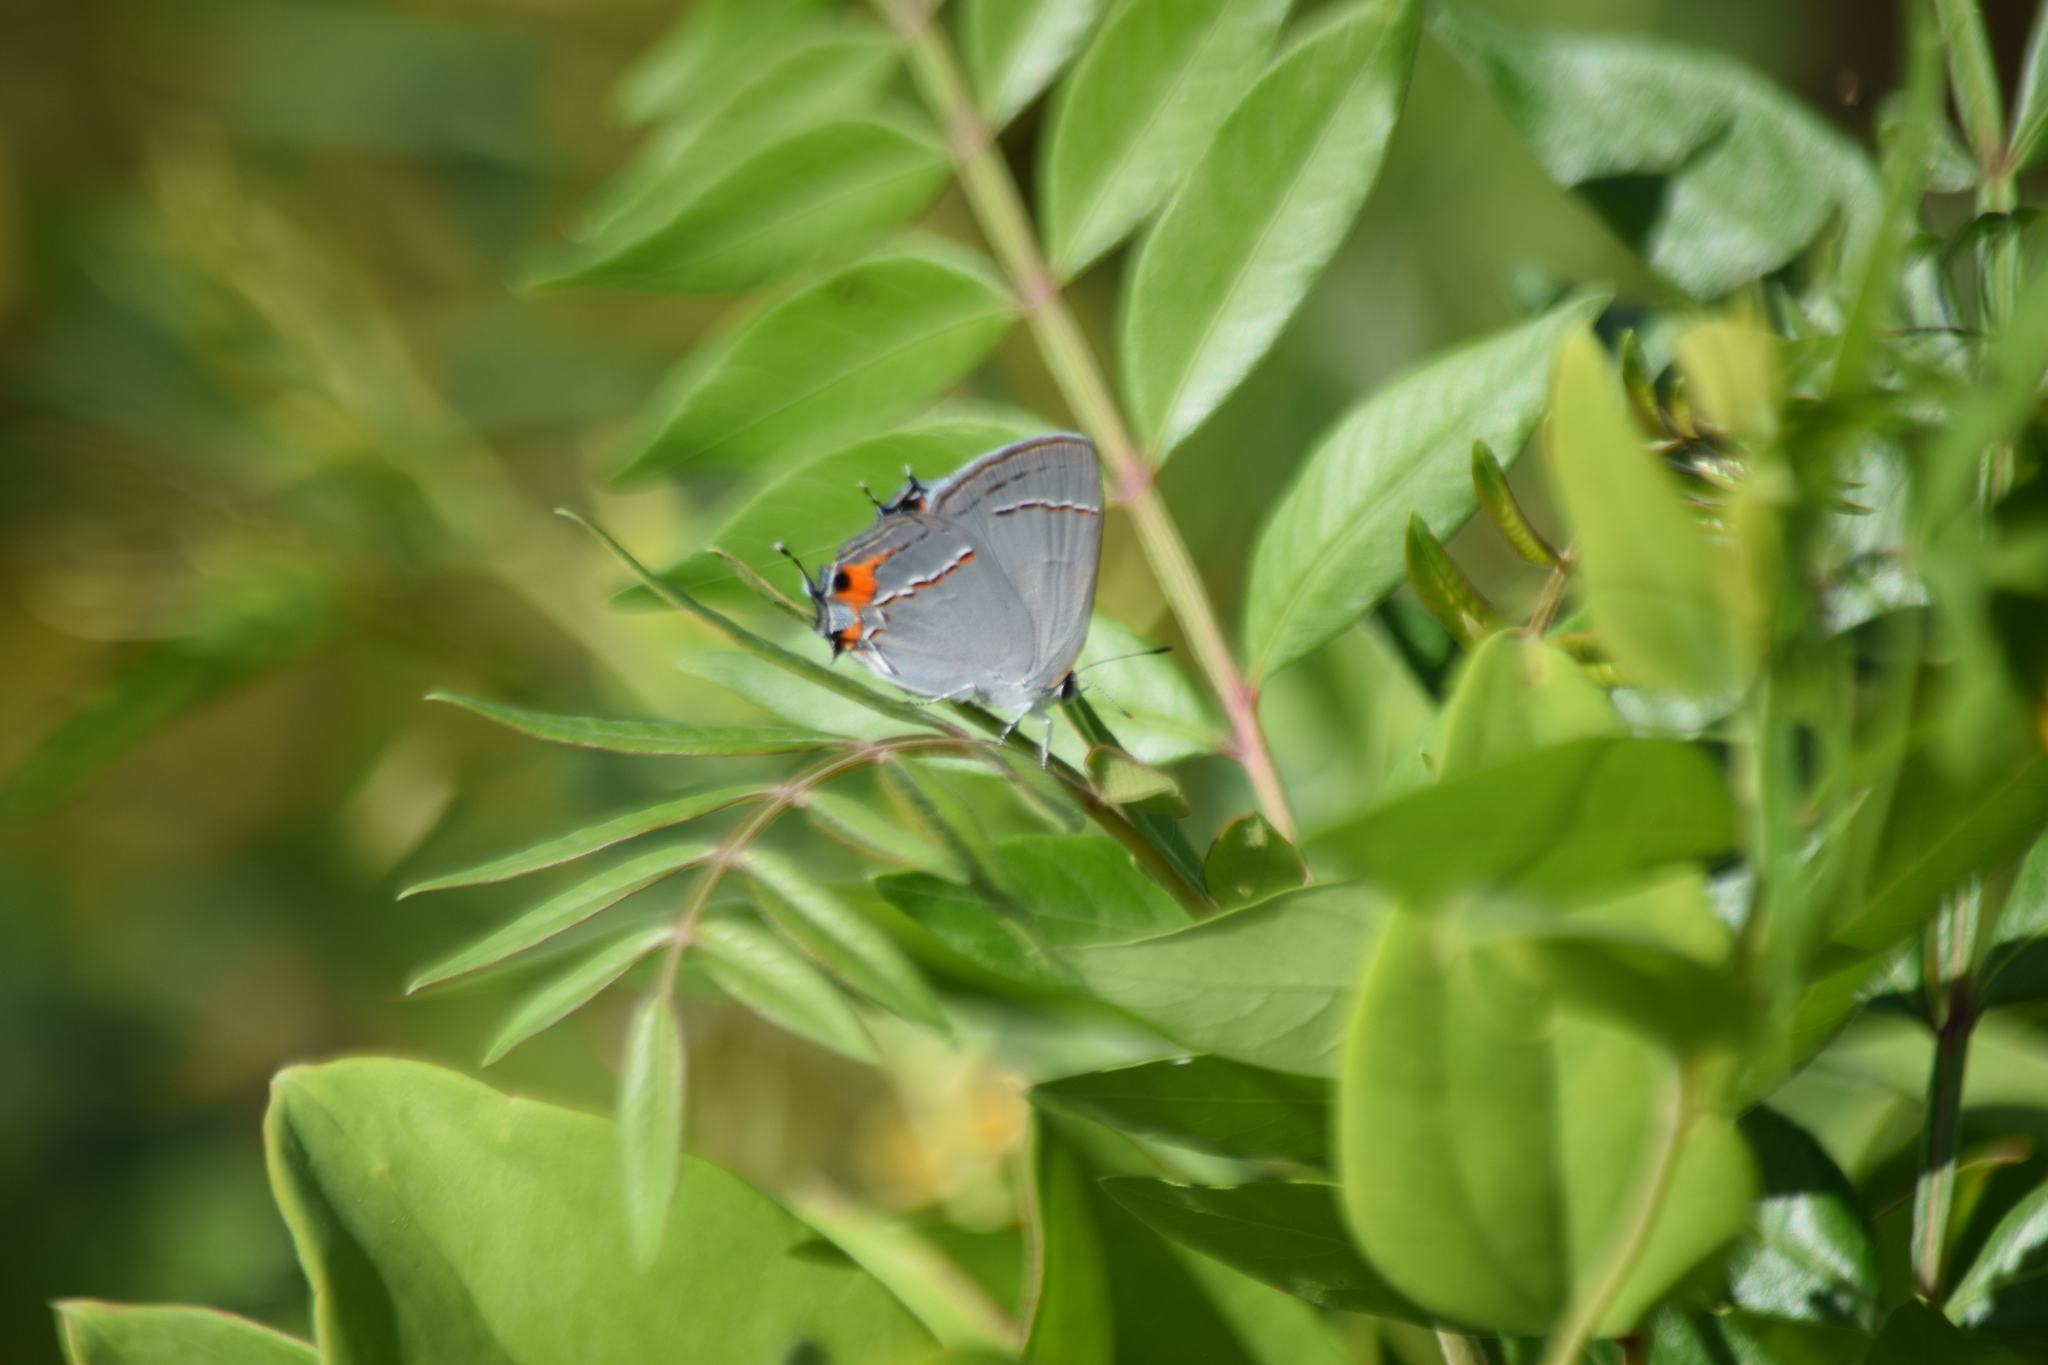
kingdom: Animalia
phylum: Arthropoda
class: Insecta
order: Lepidoptera
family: Lycaenidae
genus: Strymon
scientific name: Strymon melinus
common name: Gray hairstreak
